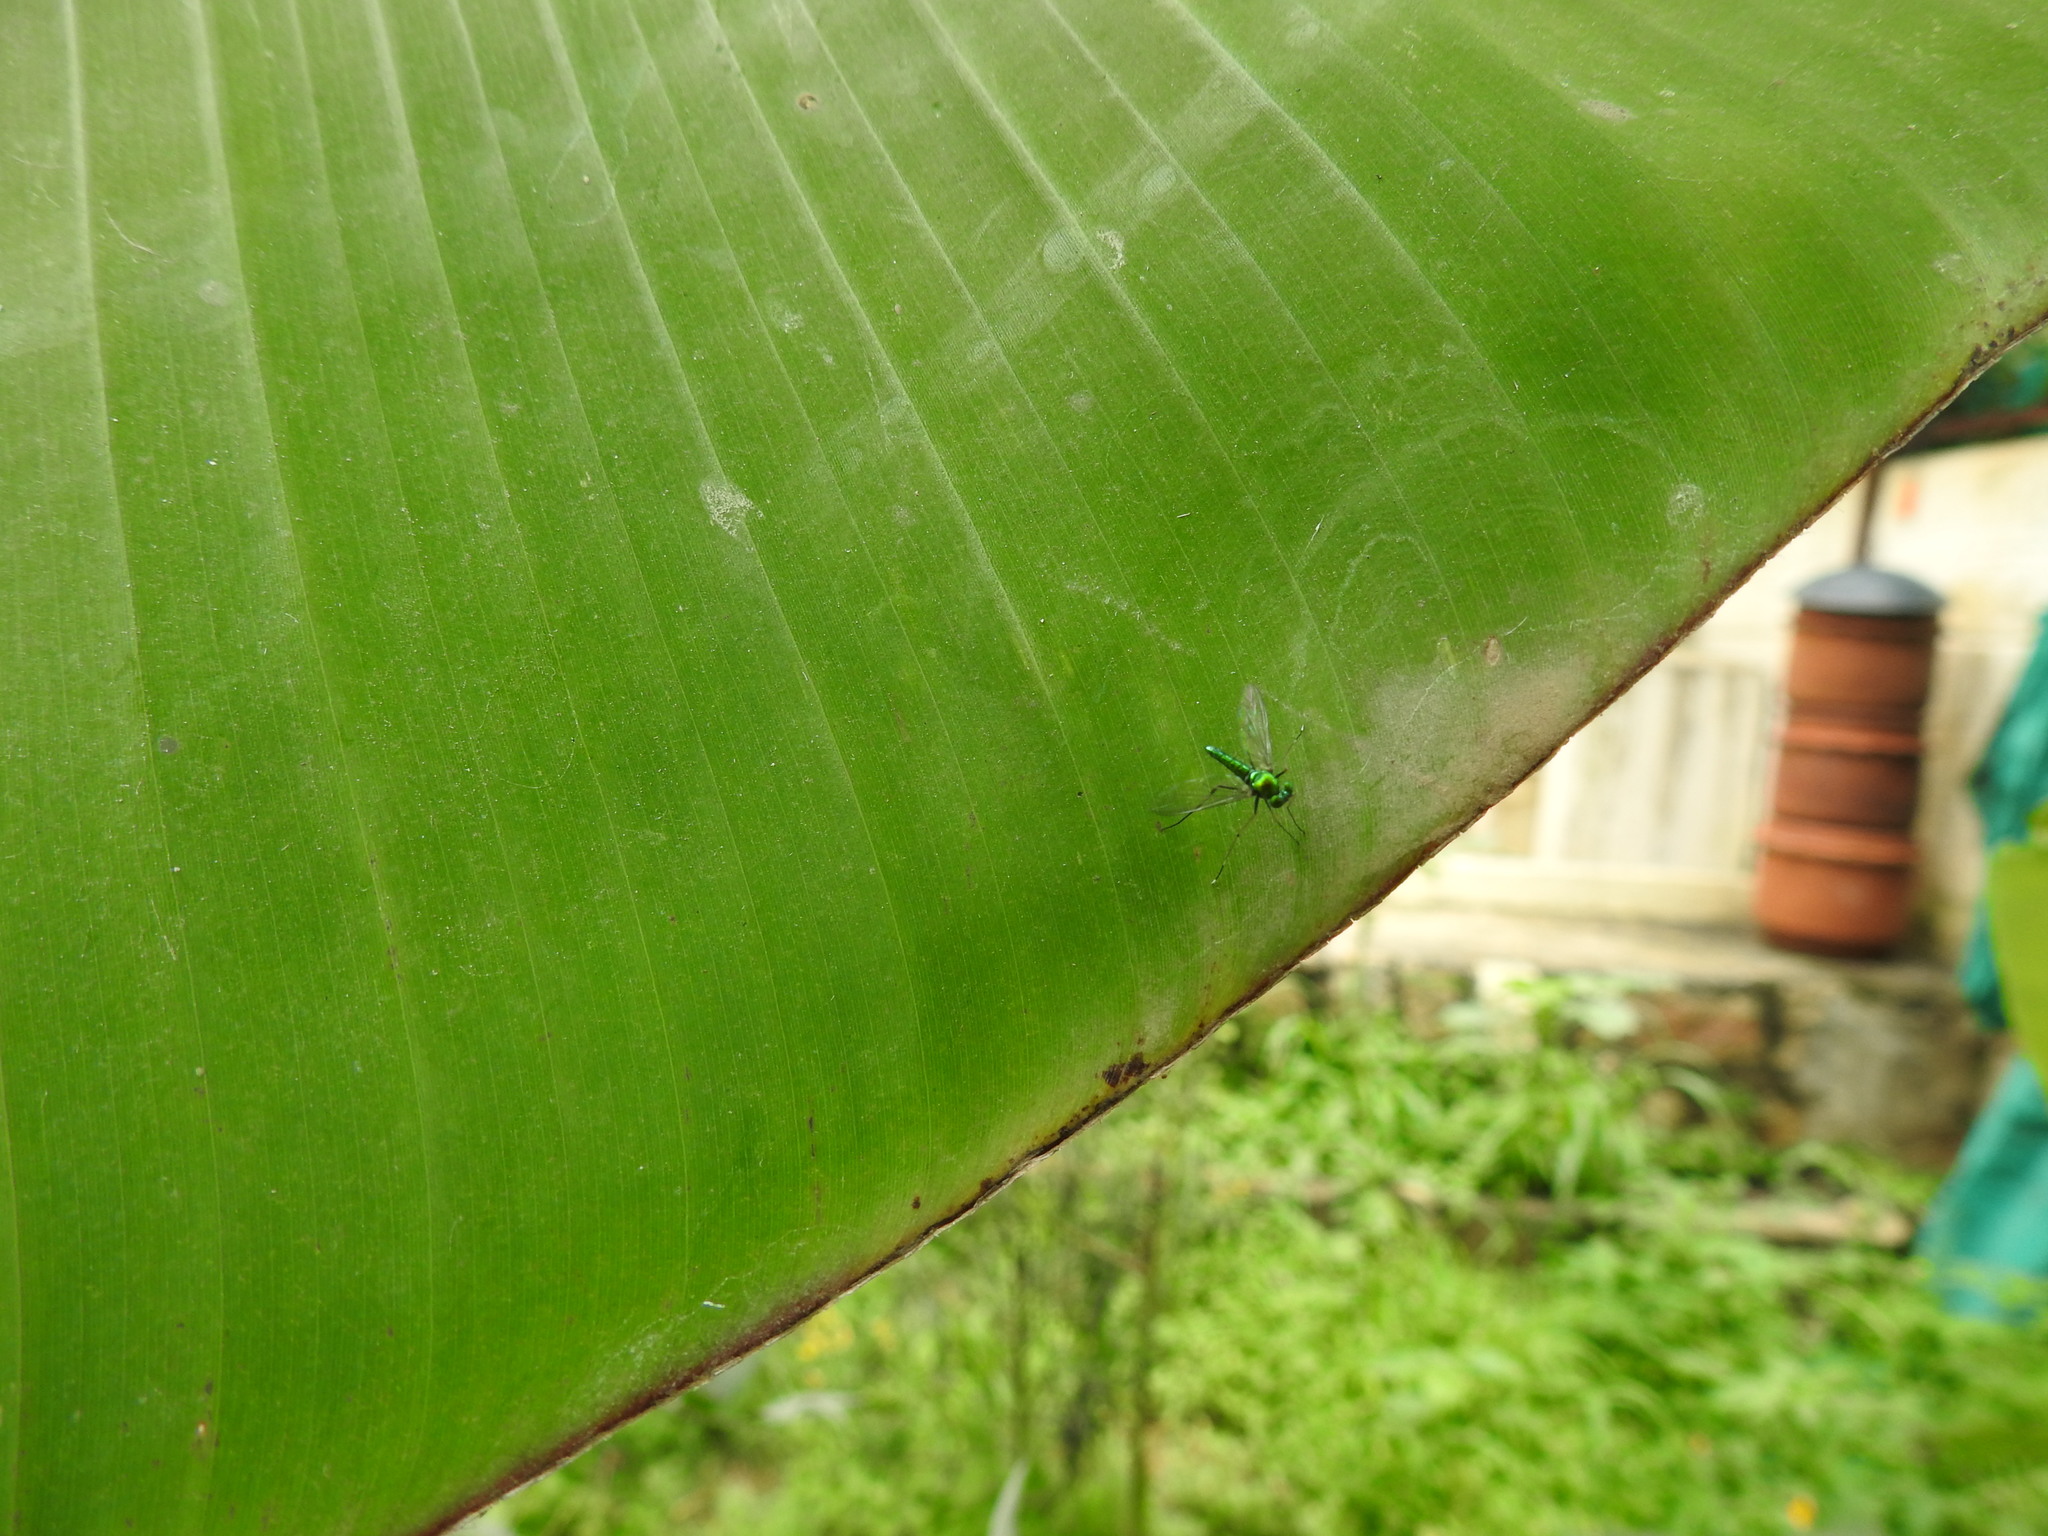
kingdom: Animalia
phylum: Arthropoda
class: Insecta
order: Diptera
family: Dolichopodidae
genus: Chrysosoma
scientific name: Chrysosoma leucopogon
